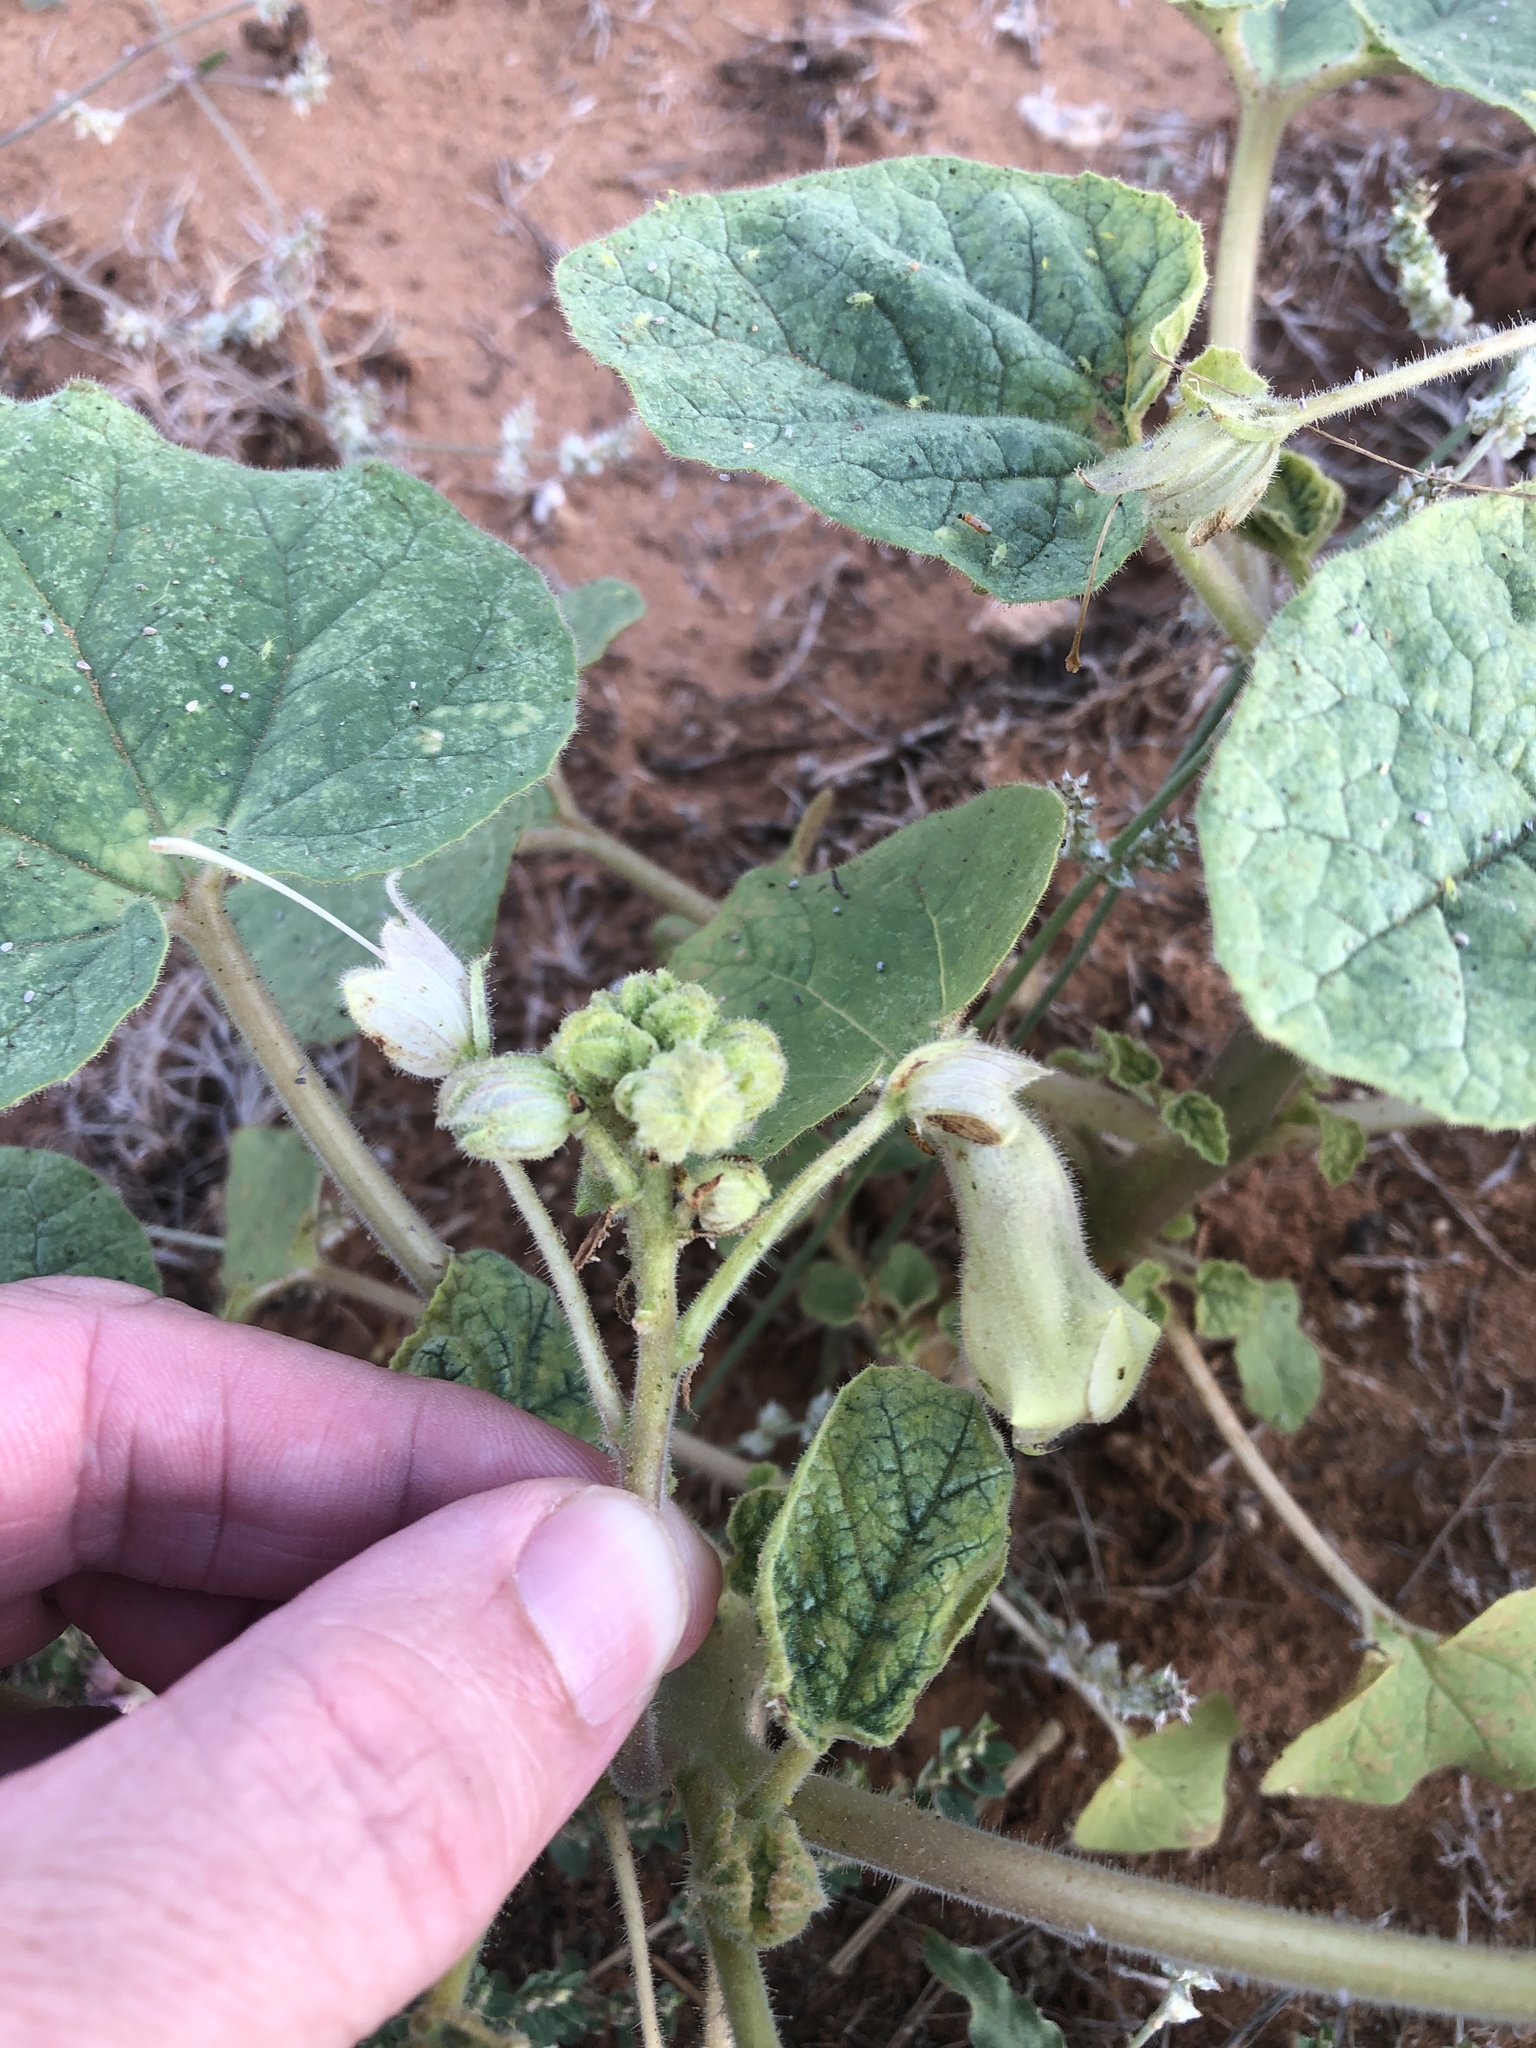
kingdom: Plantae
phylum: Tracheophyta
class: Magnoliopsida
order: Lamiales
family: Martyniaceae
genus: Proboscidea
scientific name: Proboscidea louisianica
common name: Elephant tusks
